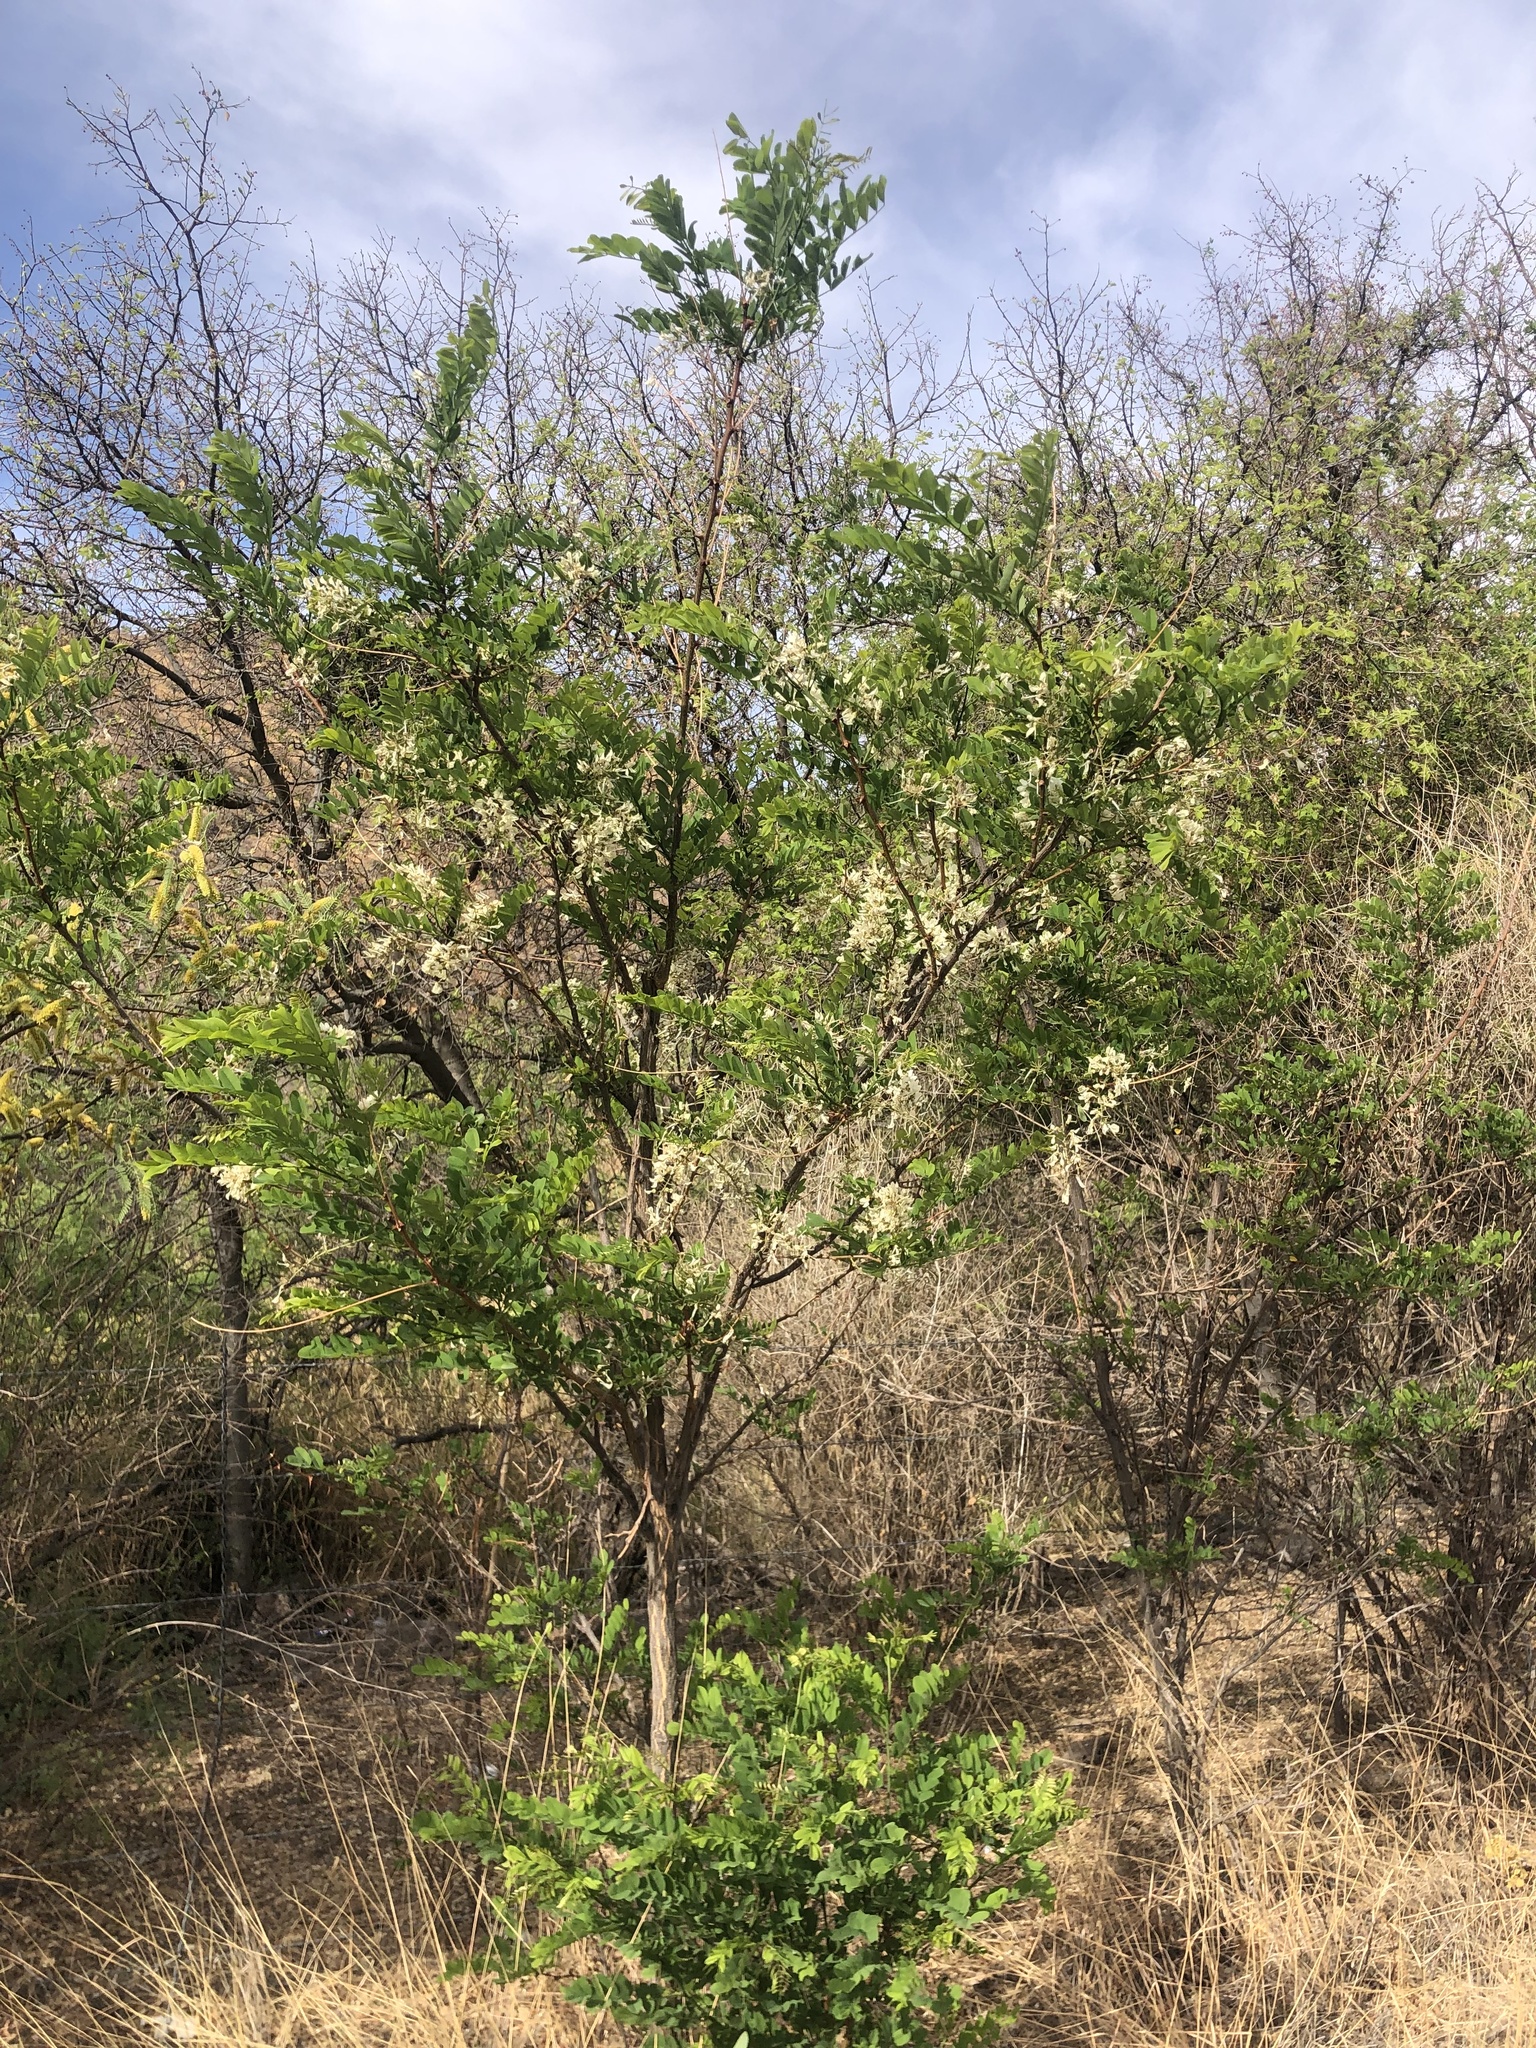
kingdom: Plantae
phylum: Tracheophyta
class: Magnoliopsida
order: Fabales
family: Fabaceae
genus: Robinia
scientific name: Robinia pseudoacacia
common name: Black locust
